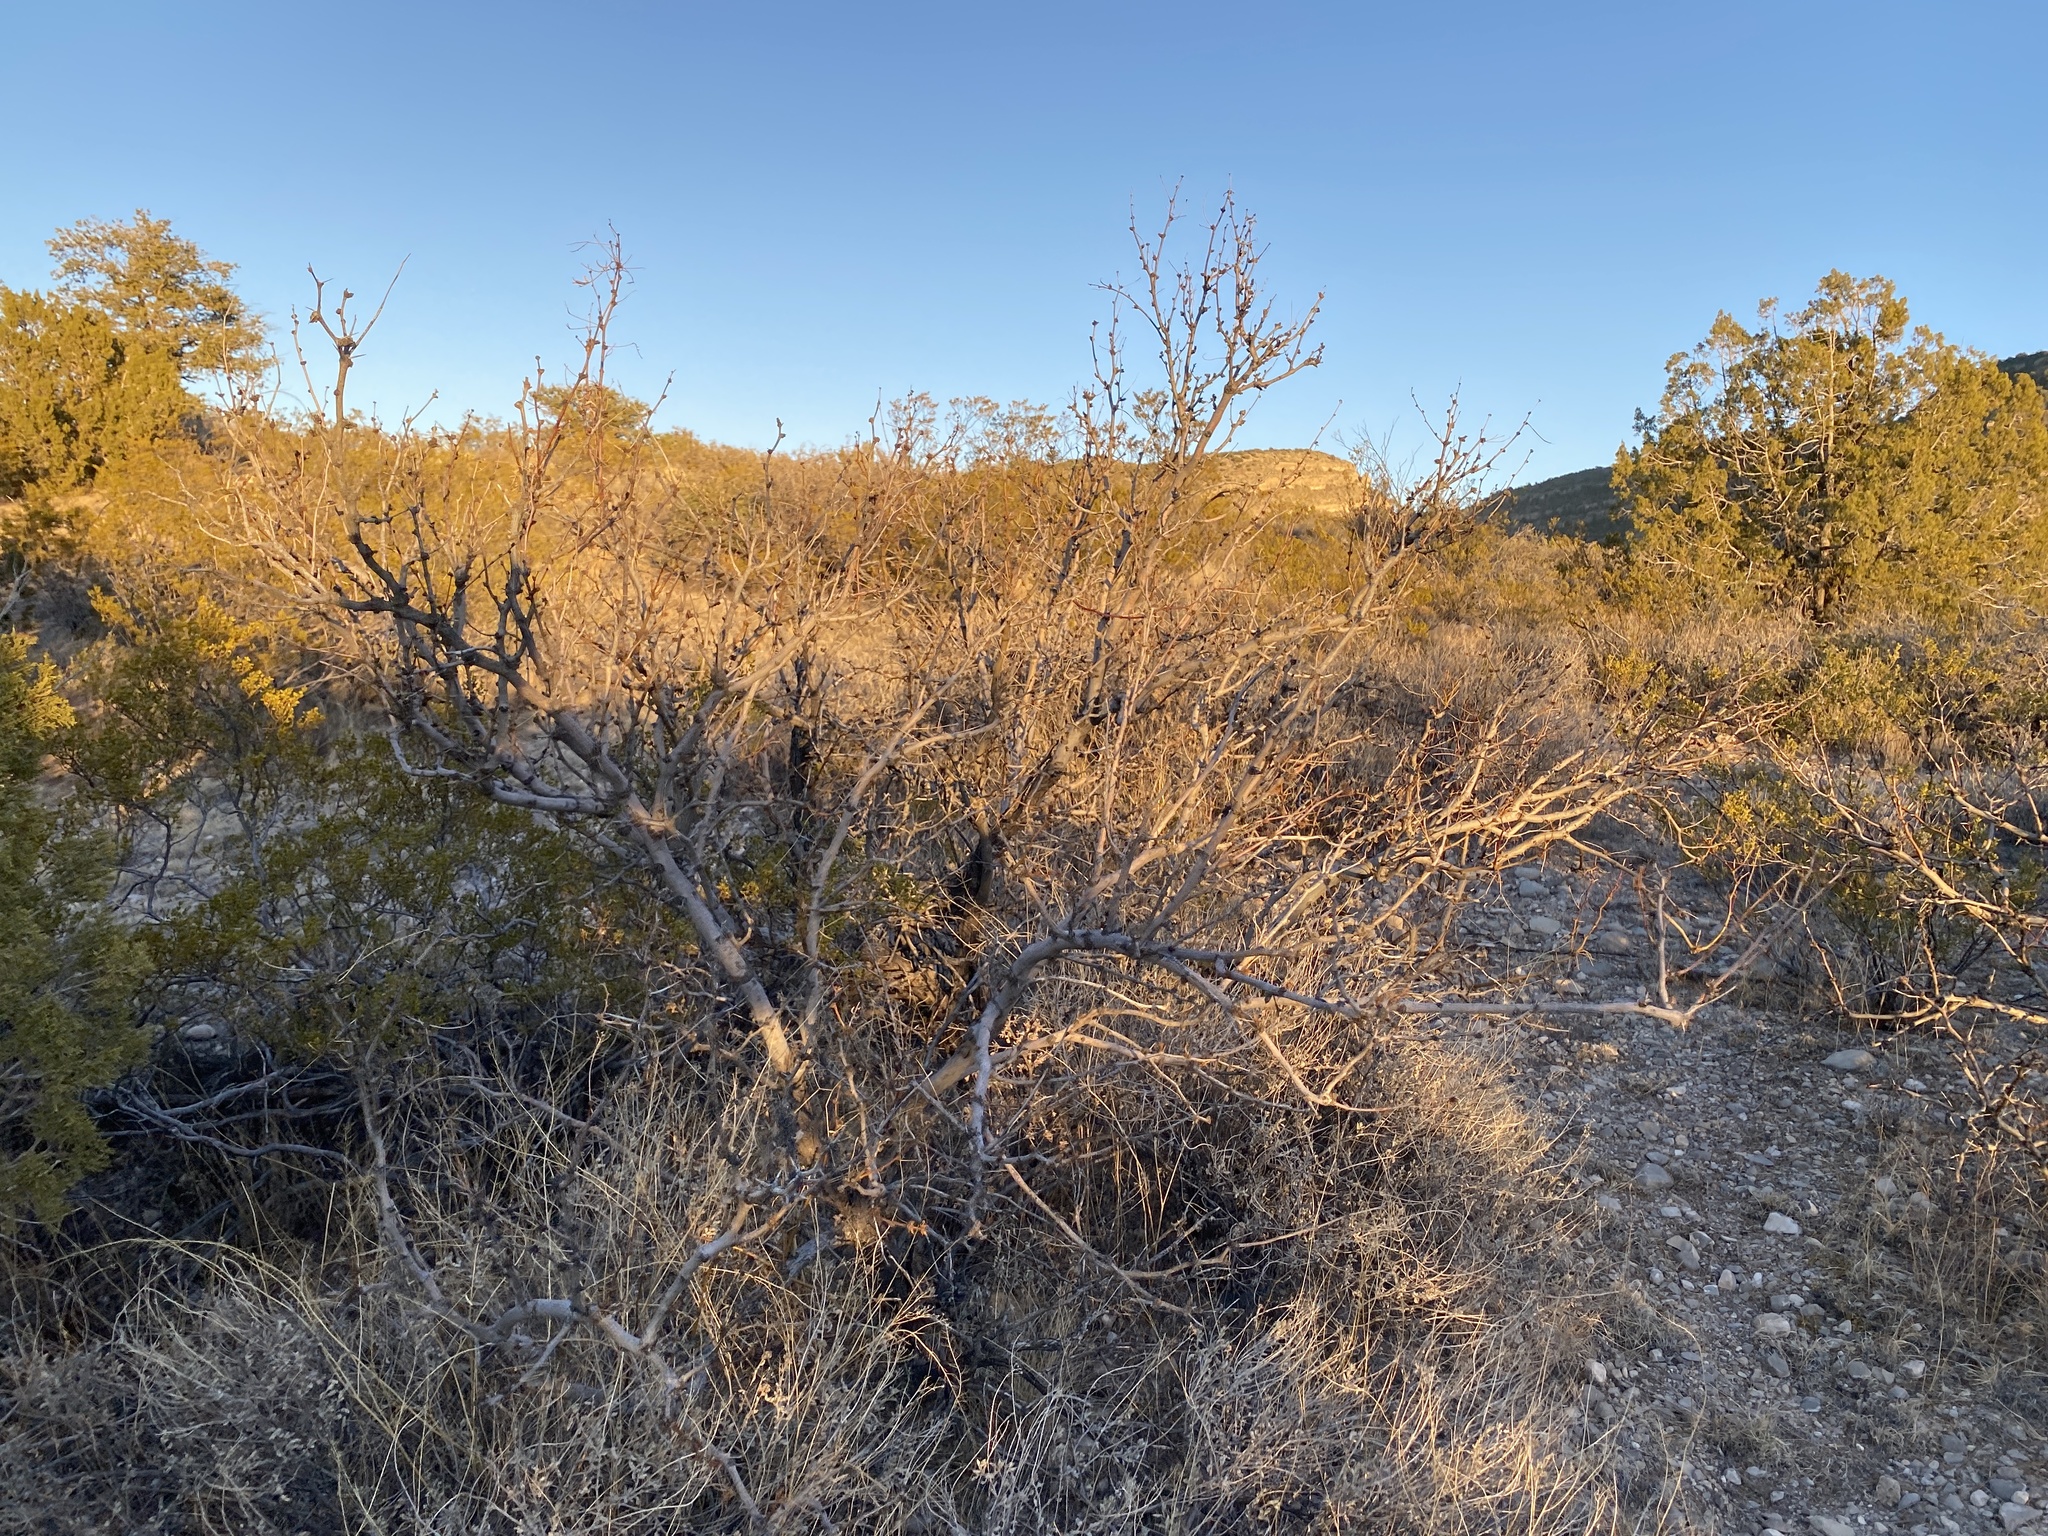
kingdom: Plantae
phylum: Tracheophyta
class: Magnoliopsida
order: Fabales
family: Fabaceae
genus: Prosopis
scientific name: Prosopis glandulosa
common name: Honey mesquite
